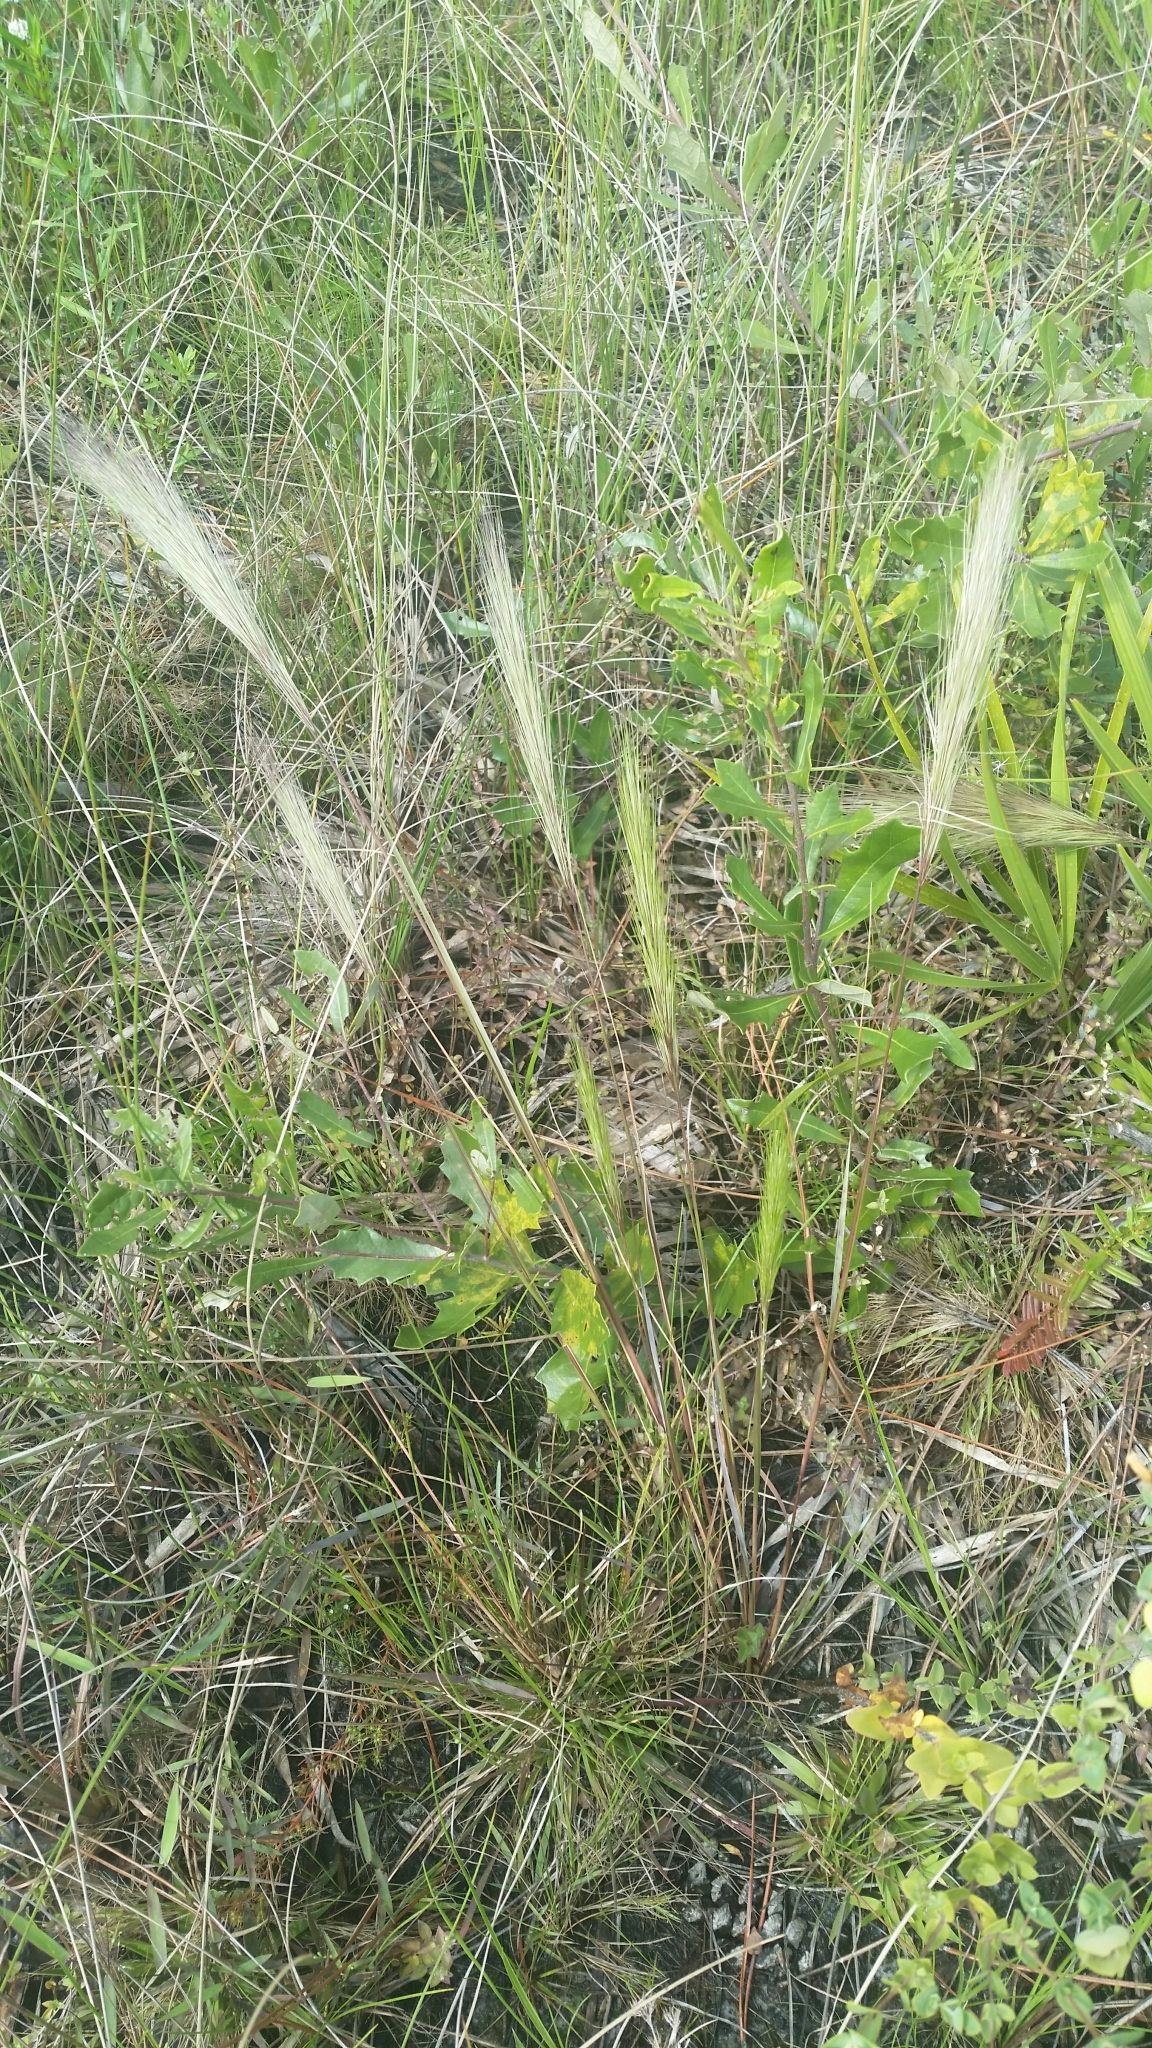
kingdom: Plantae
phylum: Tracheophyta
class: Liliopsida
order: Poales
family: Poaceae
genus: Aristida
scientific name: Aristida spiciformis
